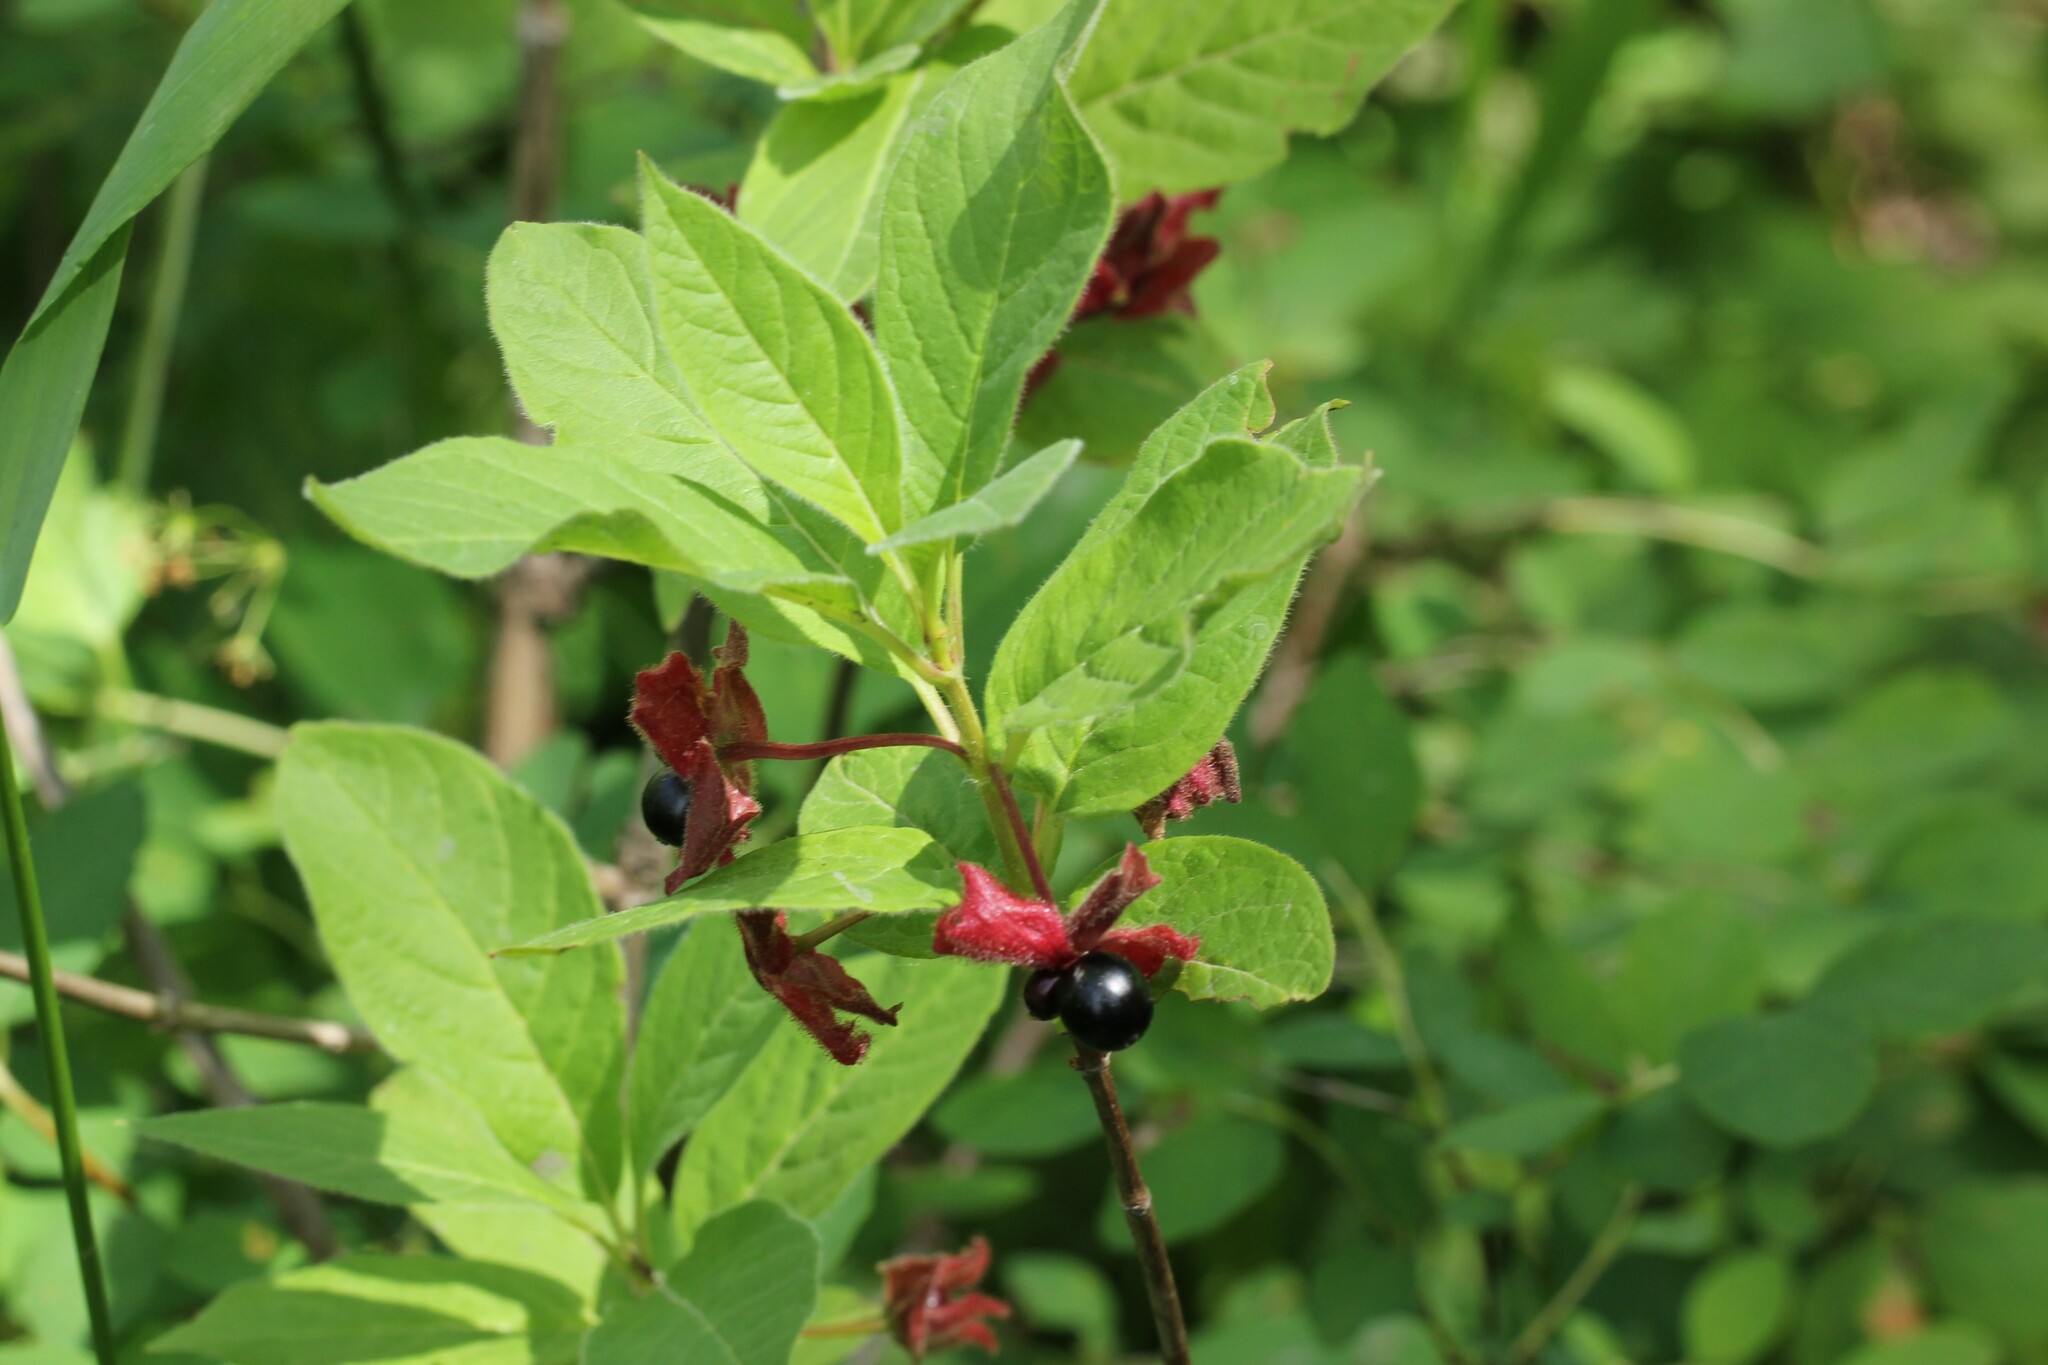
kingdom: Plantae
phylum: Tracheophyta
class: Magnoliopsida
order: Dipsacales
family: Caprifoliaceae
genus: Lonicera
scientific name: Lonicera involucrata
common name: Californian honeysuckle
